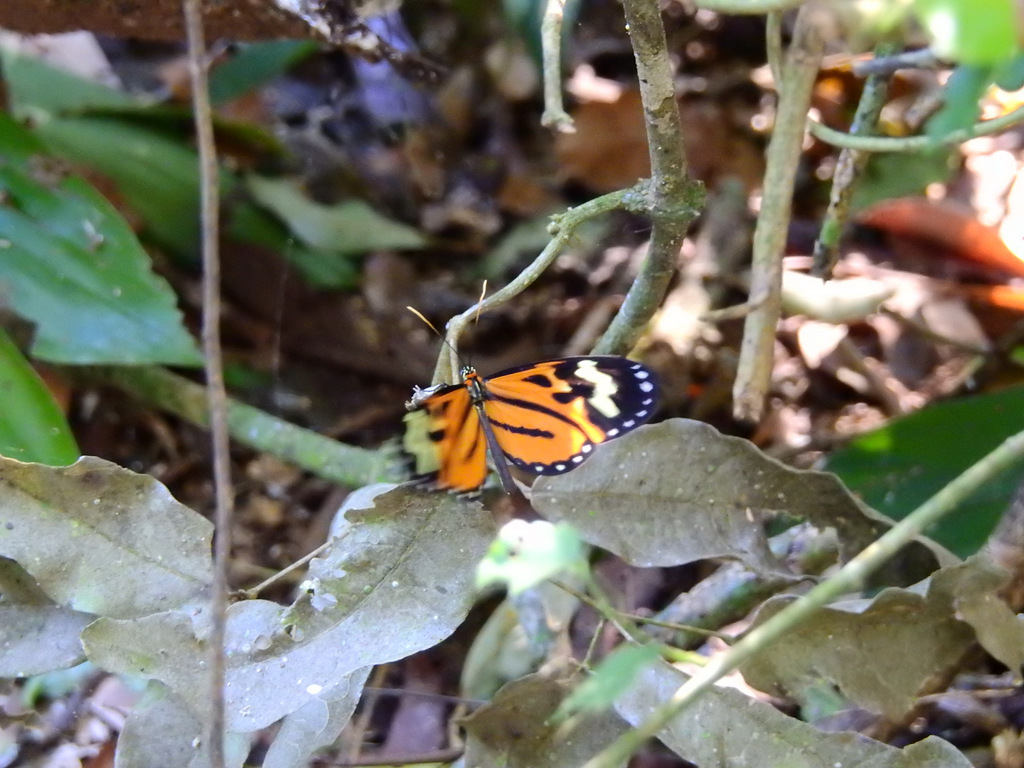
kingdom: Animalia
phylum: Arthropoda
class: Insecta
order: Lepidoptera
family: Nymphalidae
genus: Hypothyris
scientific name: Hypothyris euclea
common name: Euclea tigerwing
